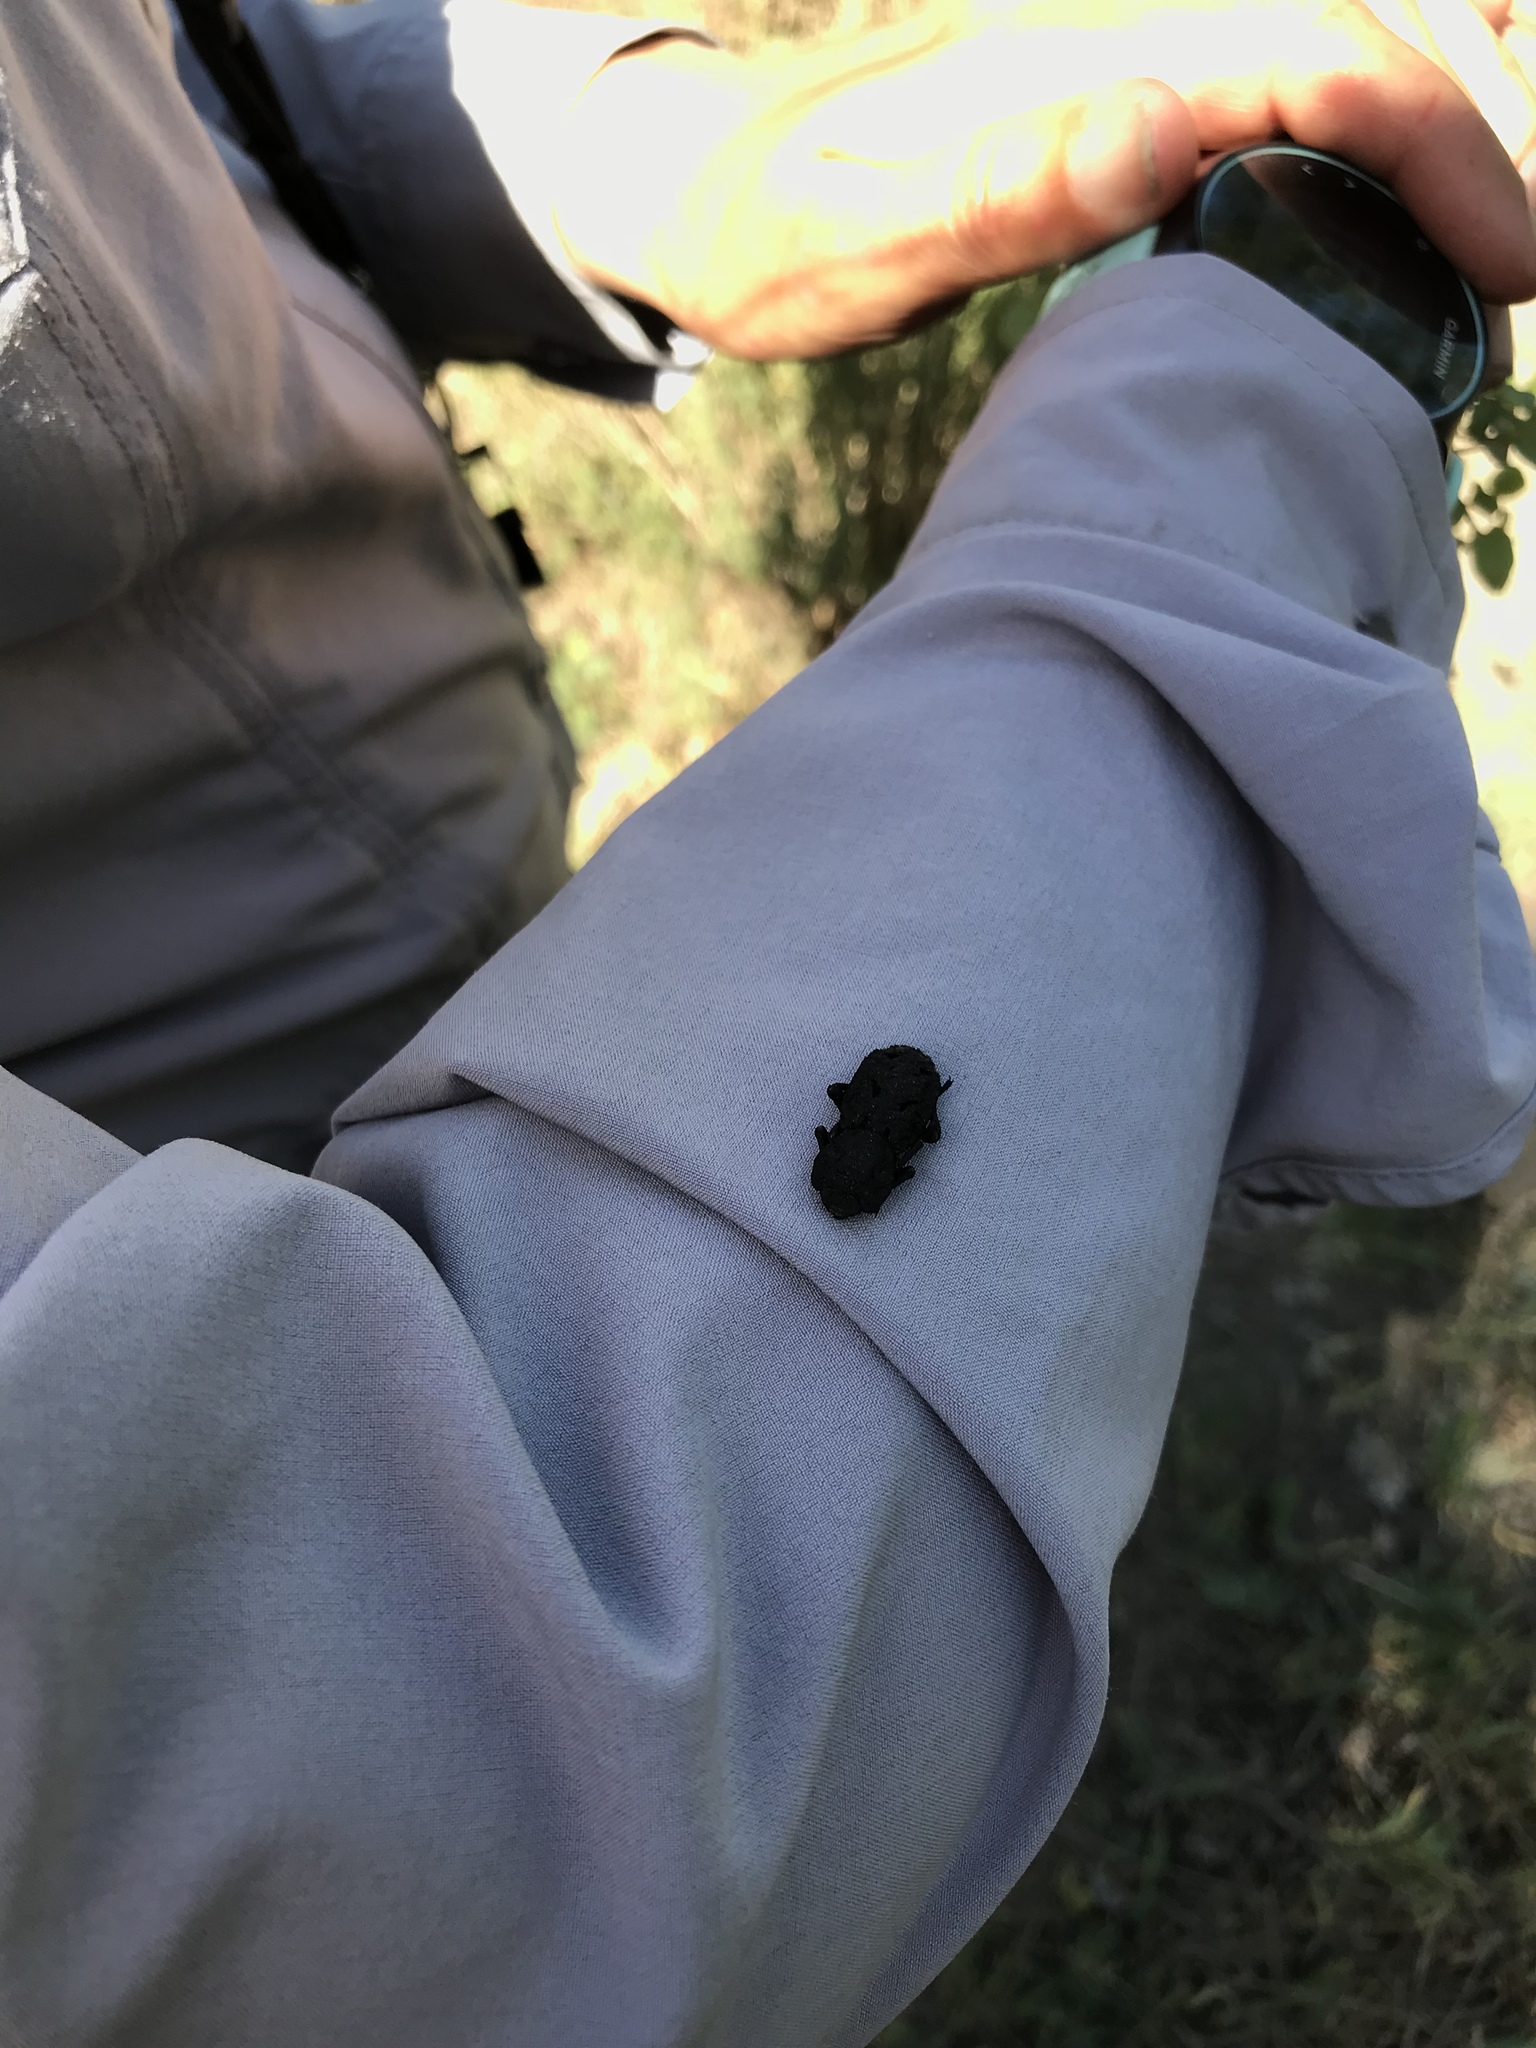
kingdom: Animalia
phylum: Arthropoda
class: Insecta
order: Coleoptera
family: Zopheridae
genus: Phloeodes
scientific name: Phloeodes diabolicus
